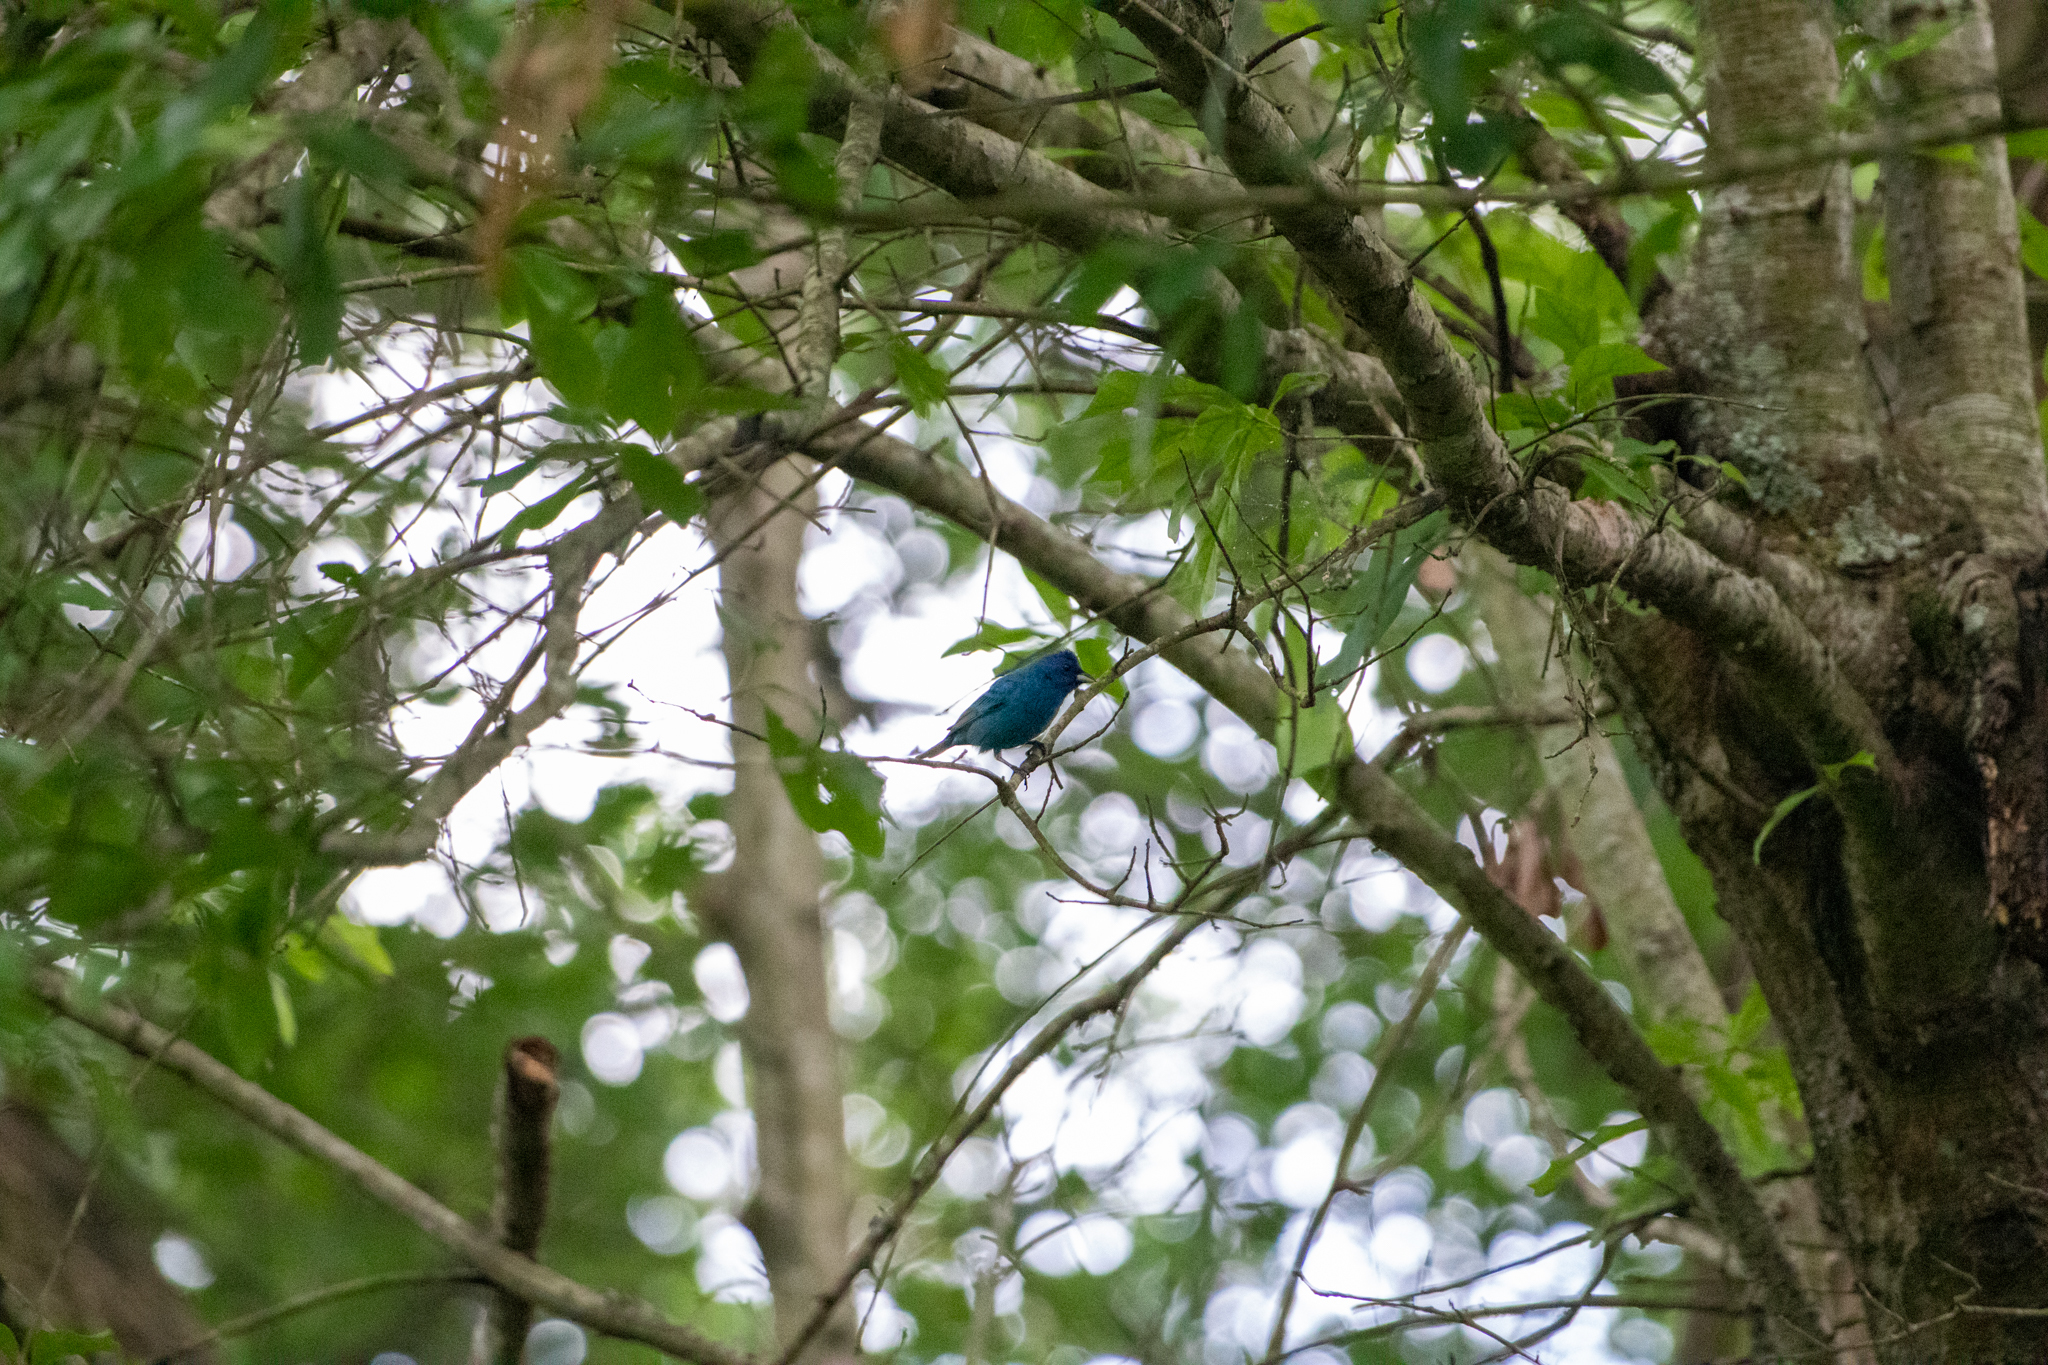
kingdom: Animalia
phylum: Chordata
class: Aves
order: Passeriformes
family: Cardinalidae
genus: Passerina
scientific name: Passerina cyanea
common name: Indigo bunting
